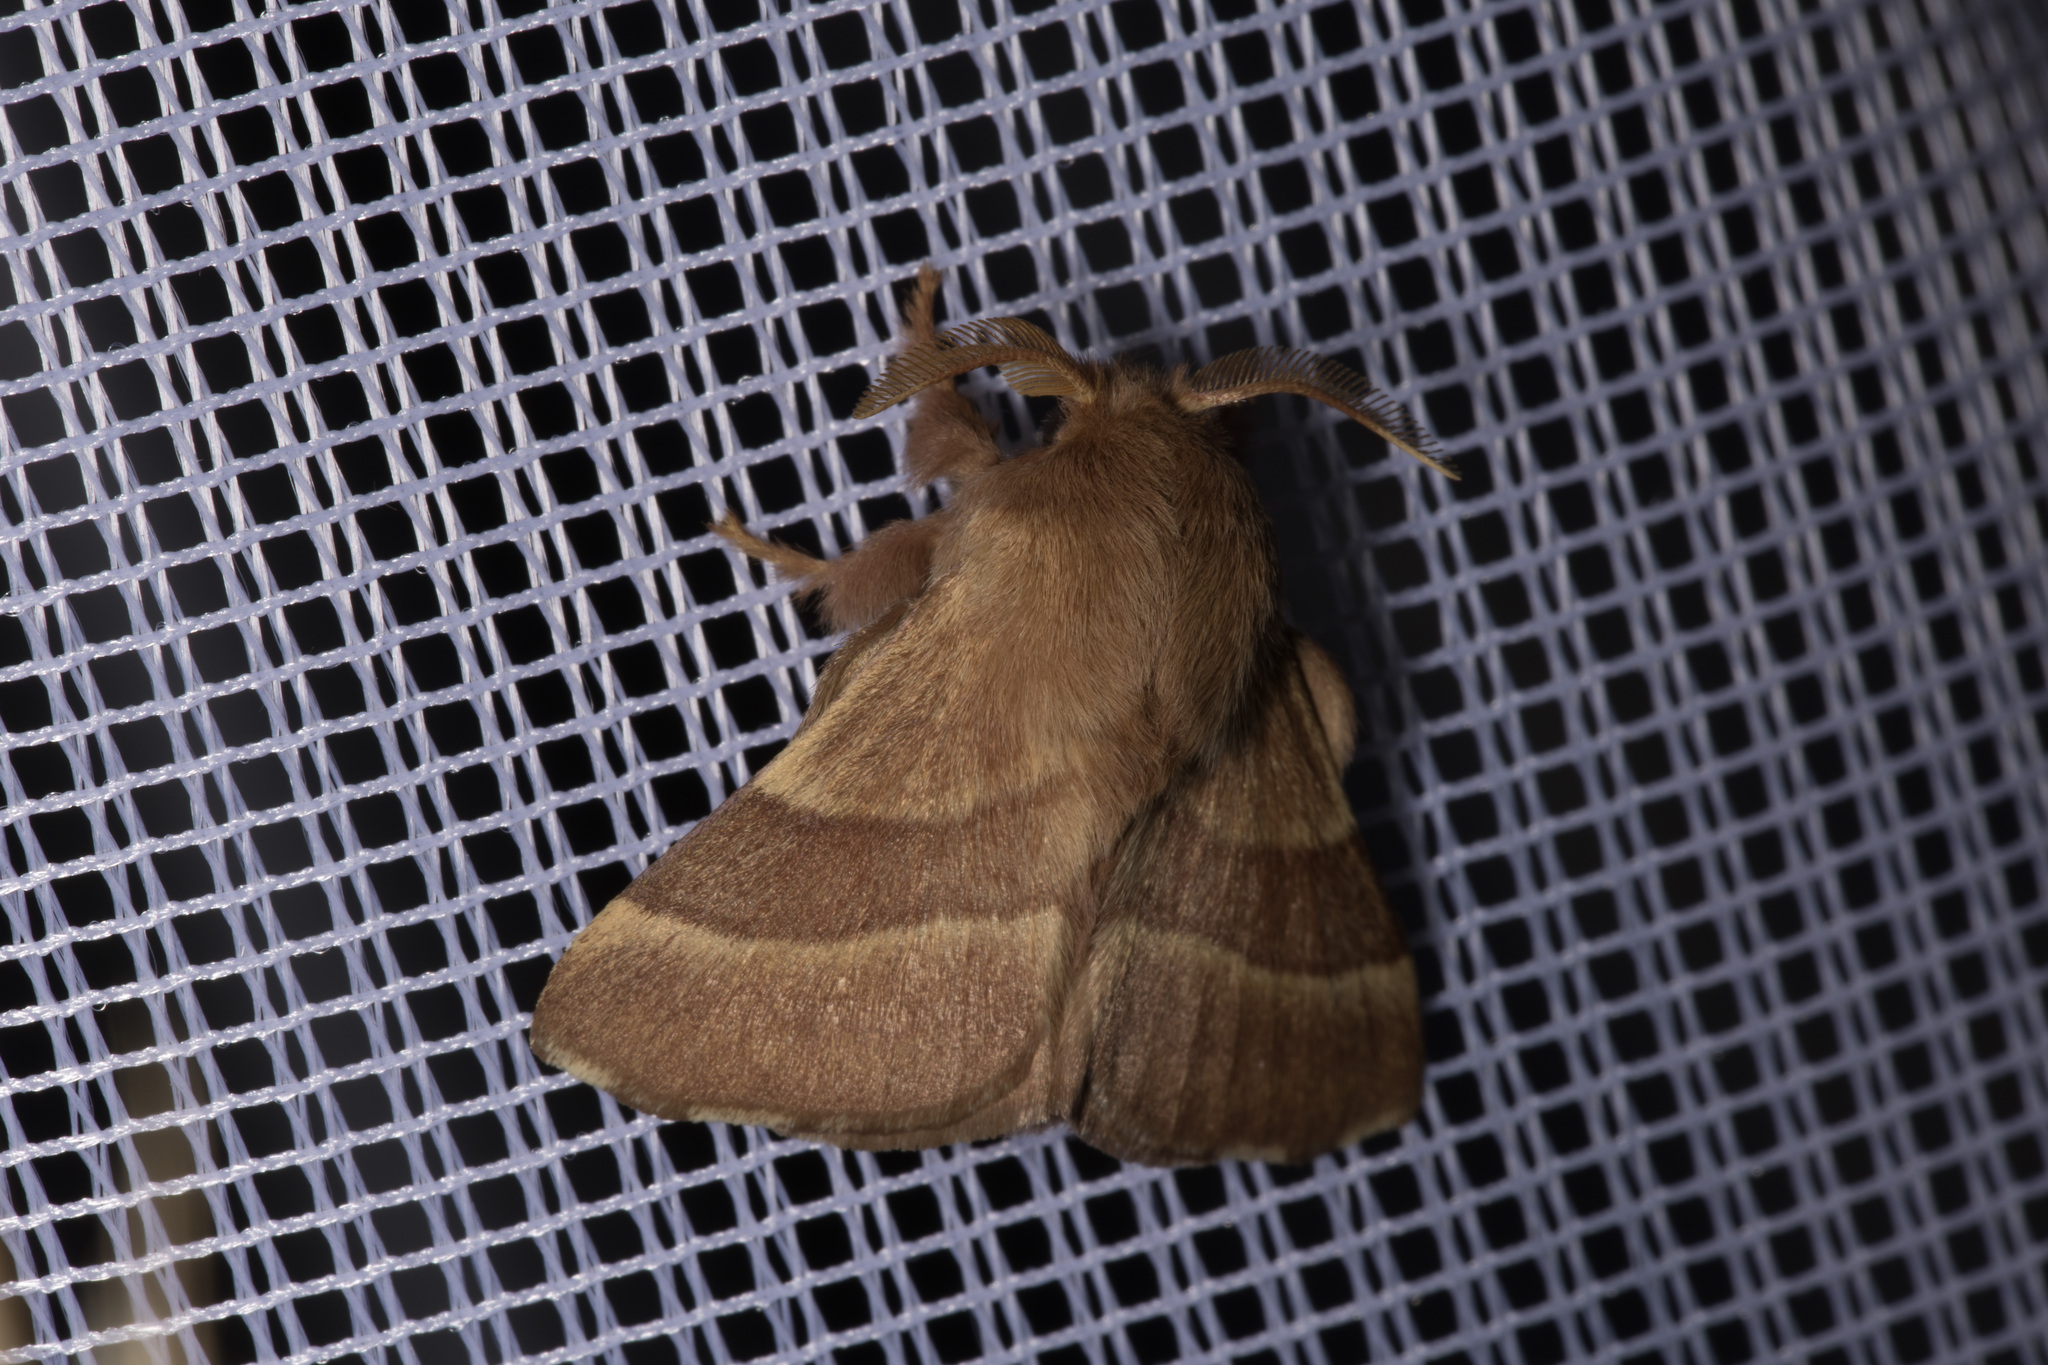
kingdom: Animalia
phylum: Arthropoda
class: Insecta
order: Lepidoptera
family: Lasiocampidae
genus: Malacosoma
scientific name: Malacosoma neustria
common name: The lackey
